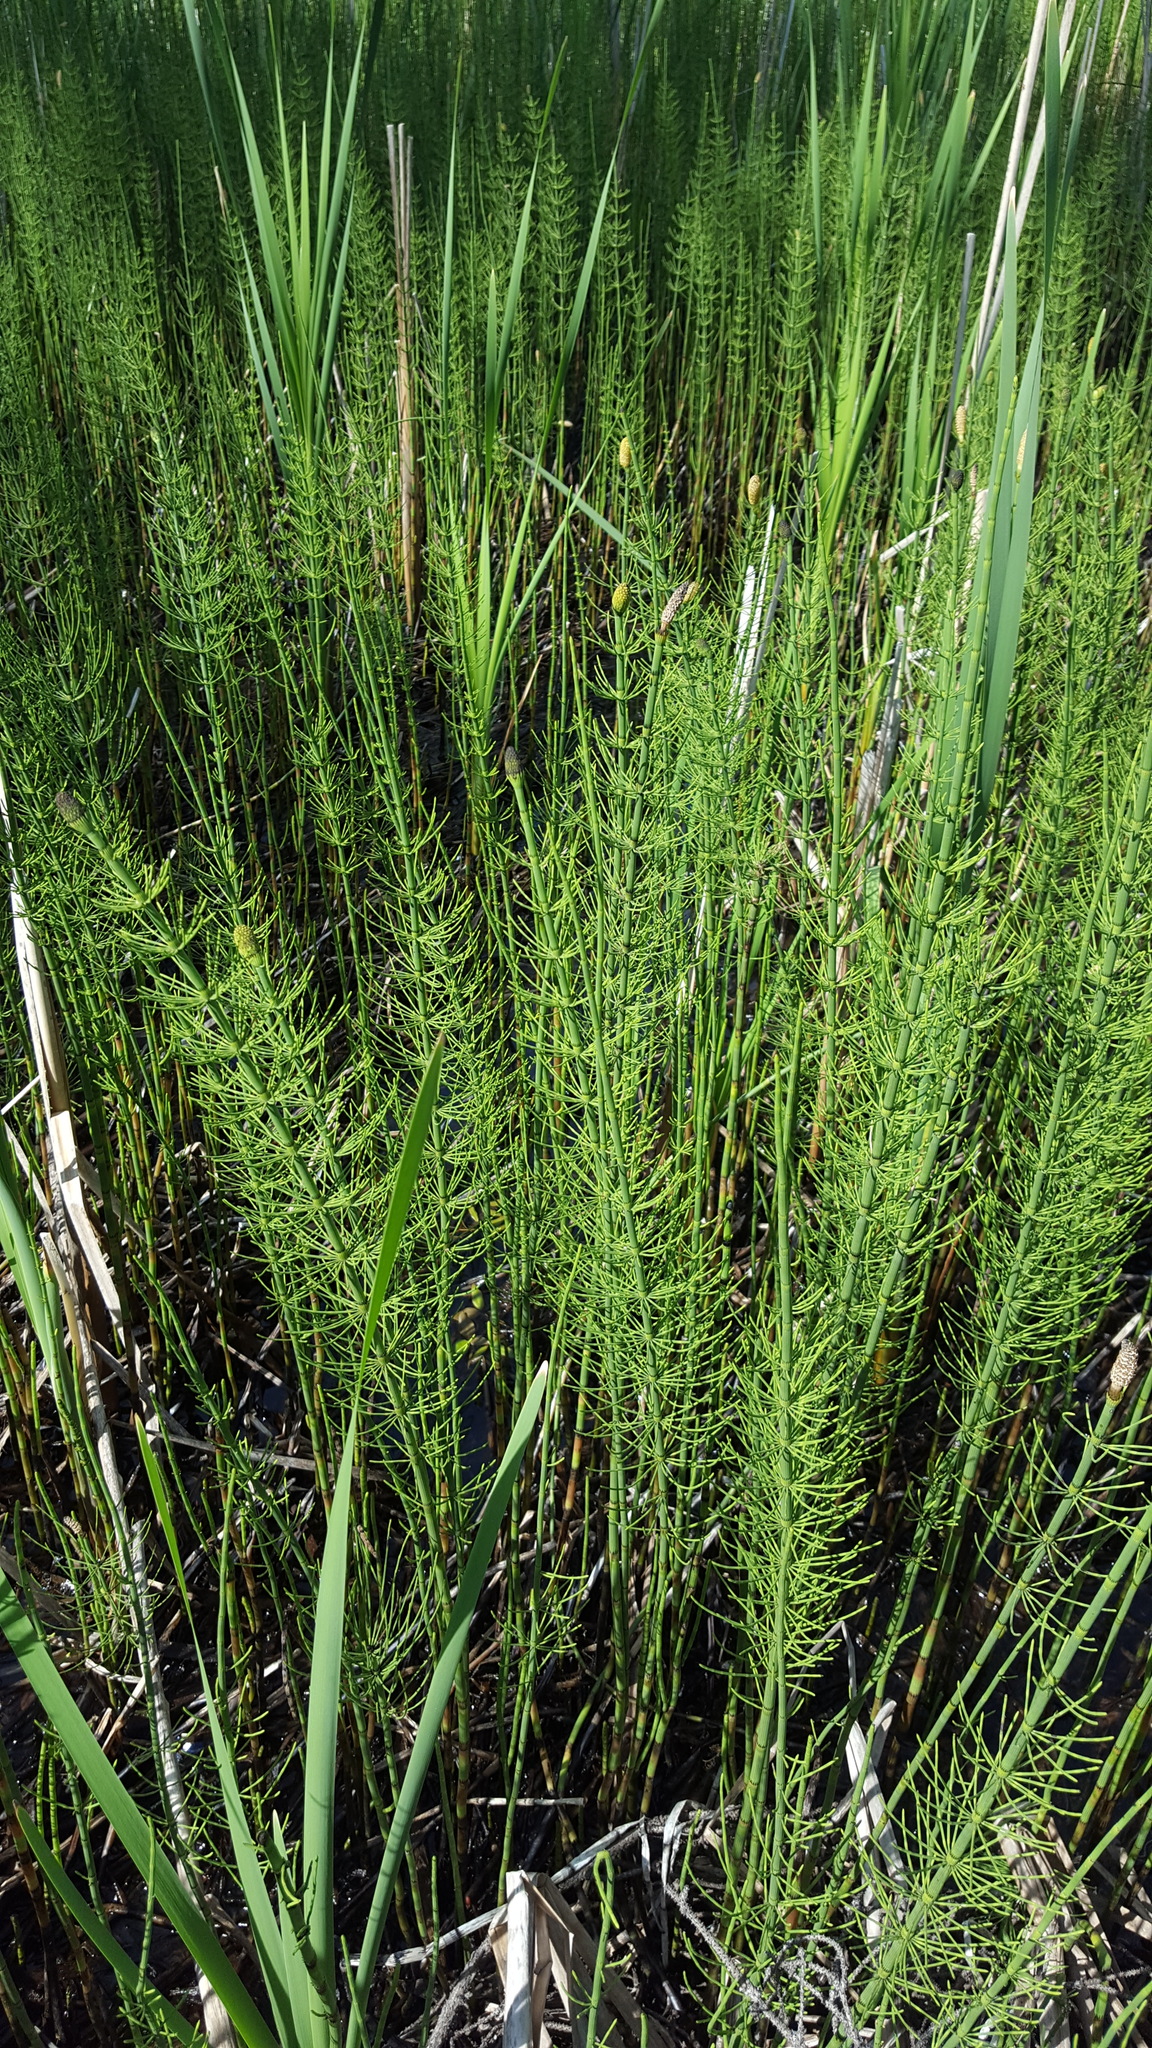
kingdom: Plantae
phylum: Tracheophyta
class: Polypodiopsida
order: Equisetales
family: Equisetaceae
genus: Equisetum
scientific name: Equisetum fluviatile
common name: Water horsetail
